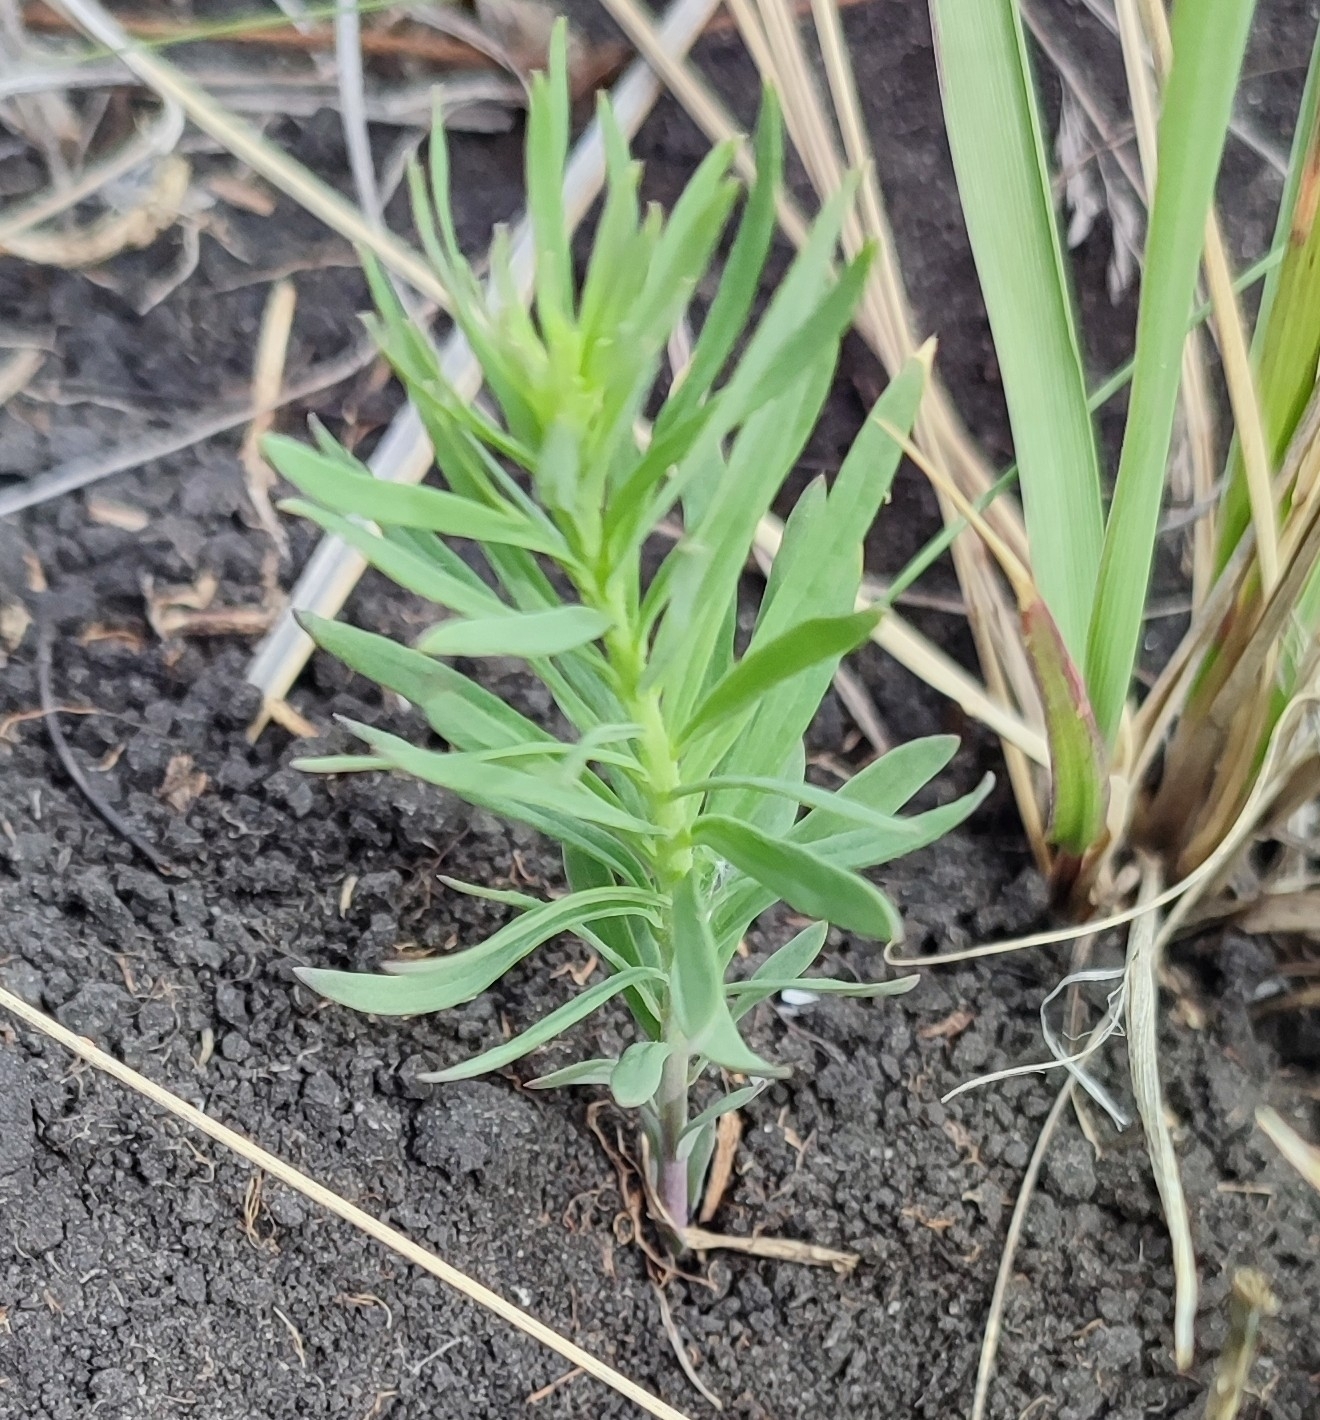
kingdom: Plantae
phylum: Tracheophyta
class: Magnoliopsida
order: Lamiales
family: Plantaginaceae
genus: Linaria
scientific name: Linaria vulgaris
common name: Butter and eggs
